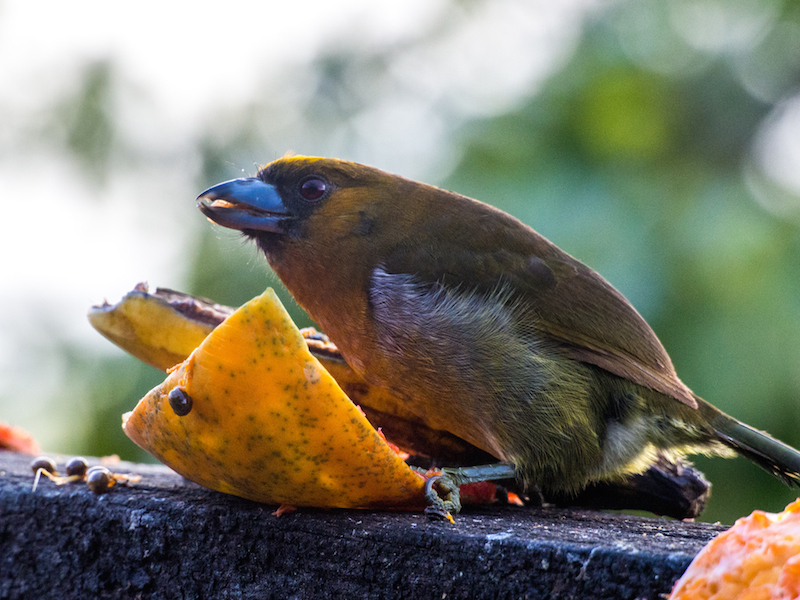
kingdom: Animalia
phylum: Chordata
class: Aves
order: Piciformes
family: Semnornithidae
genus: Semnornis
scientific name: Semnornis frantzii
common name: Prong-billed barbet
